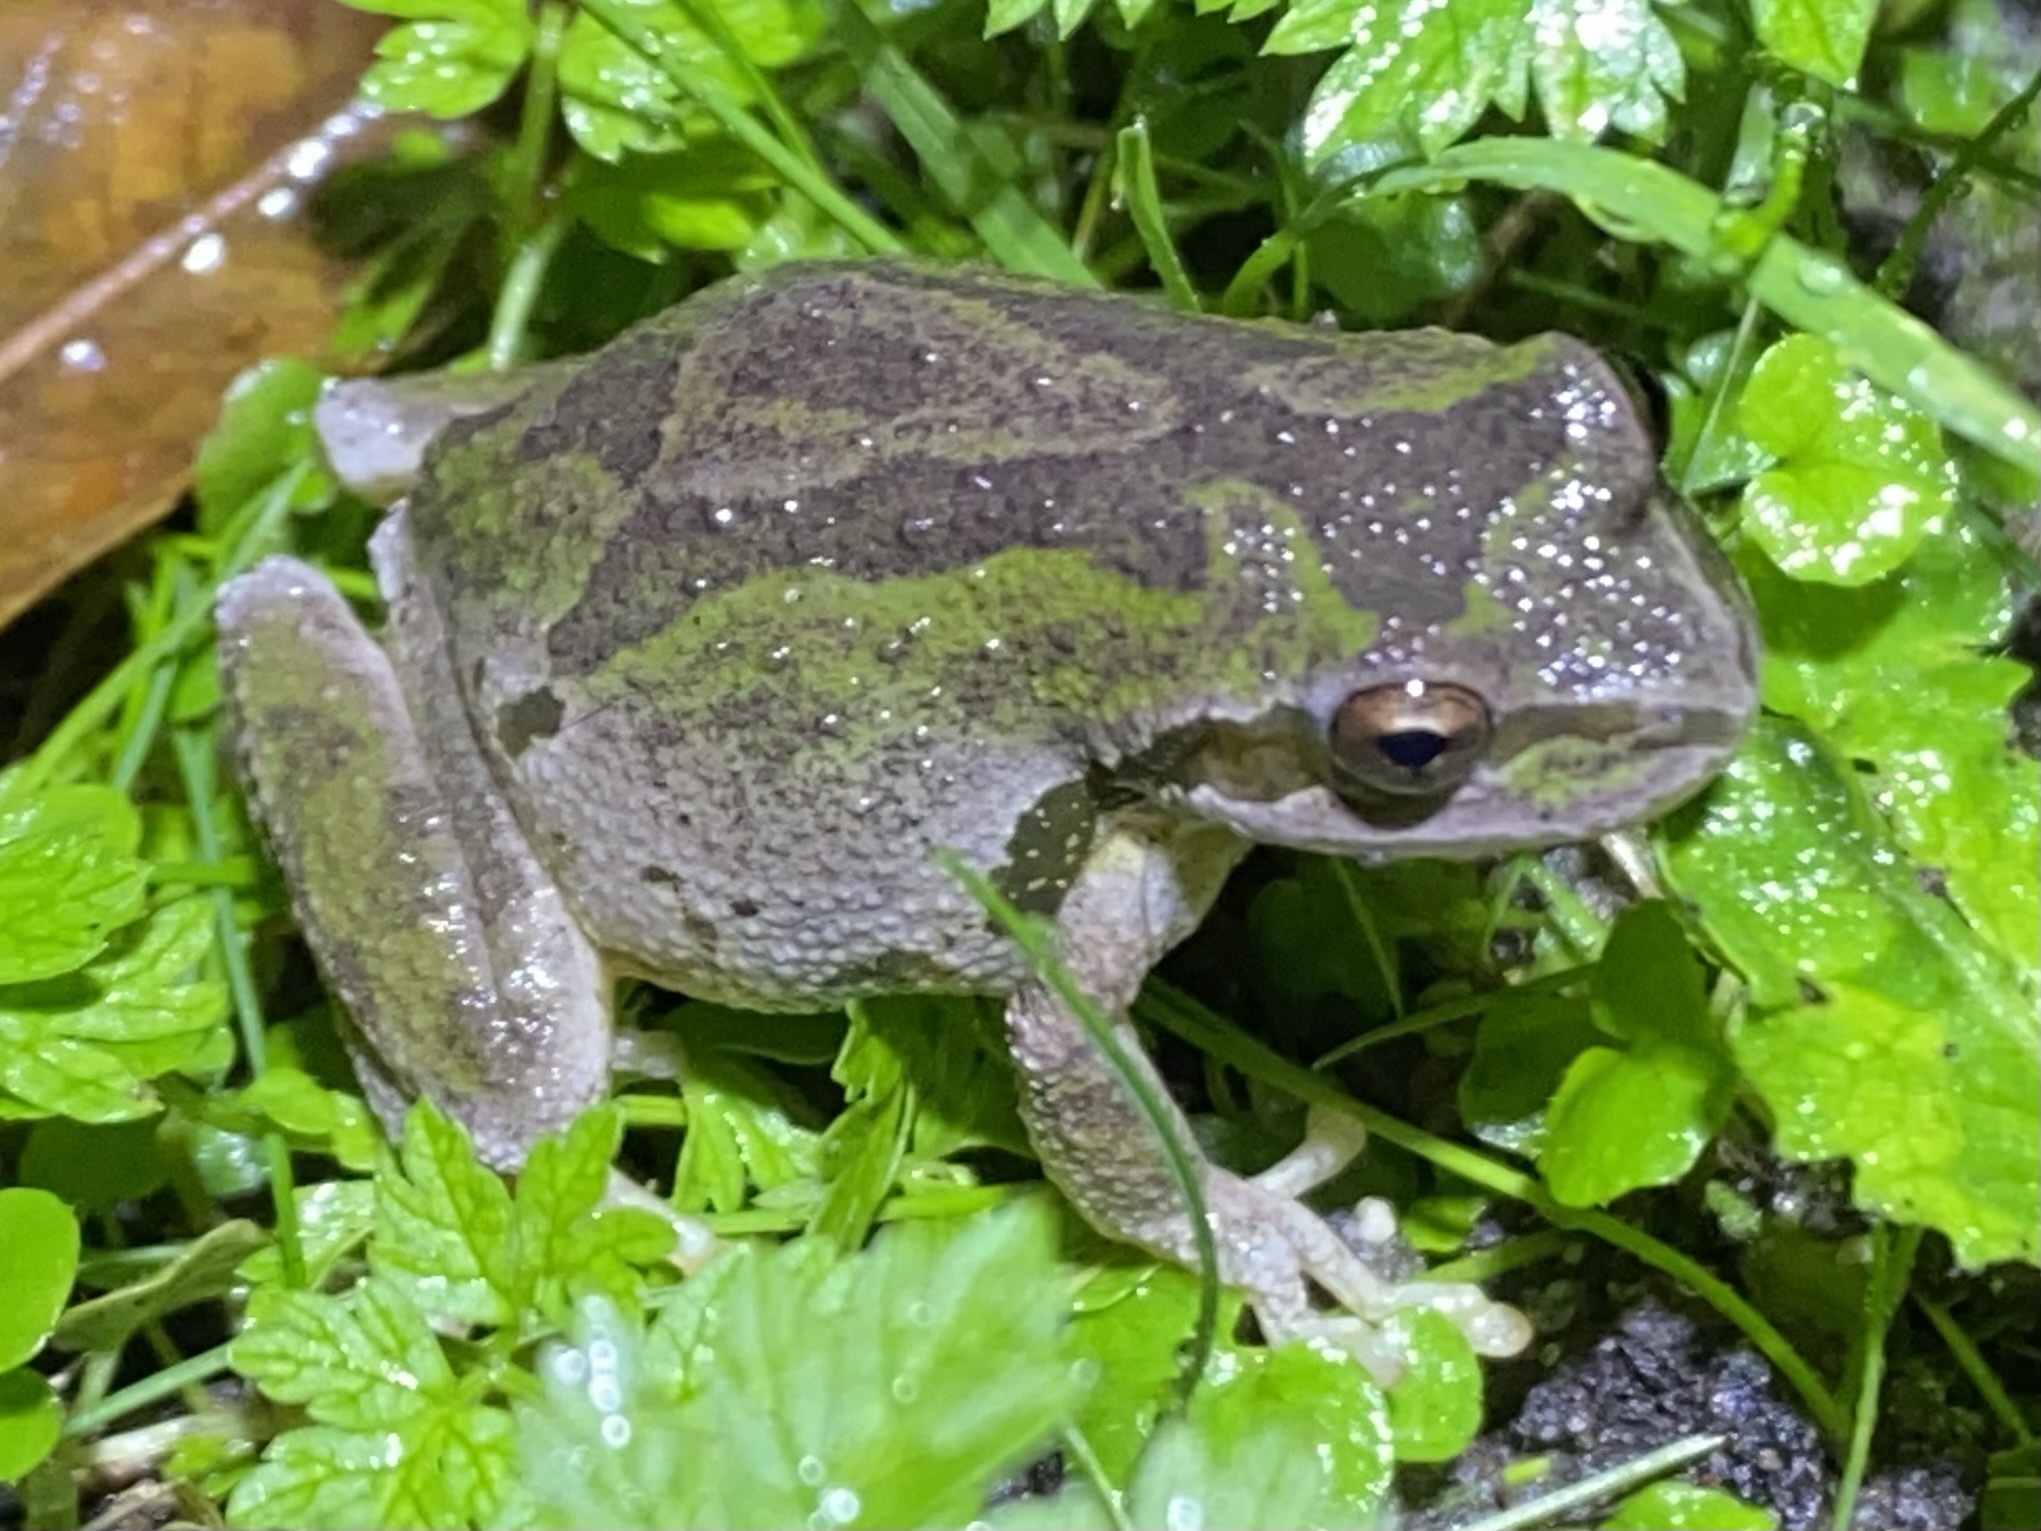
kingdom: Animalia
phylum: Chordata
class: Amphibia
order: Anura
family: Hylidae
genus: Pseudacris
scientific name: Pseudacris regilla
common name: Pacific chorus frog
